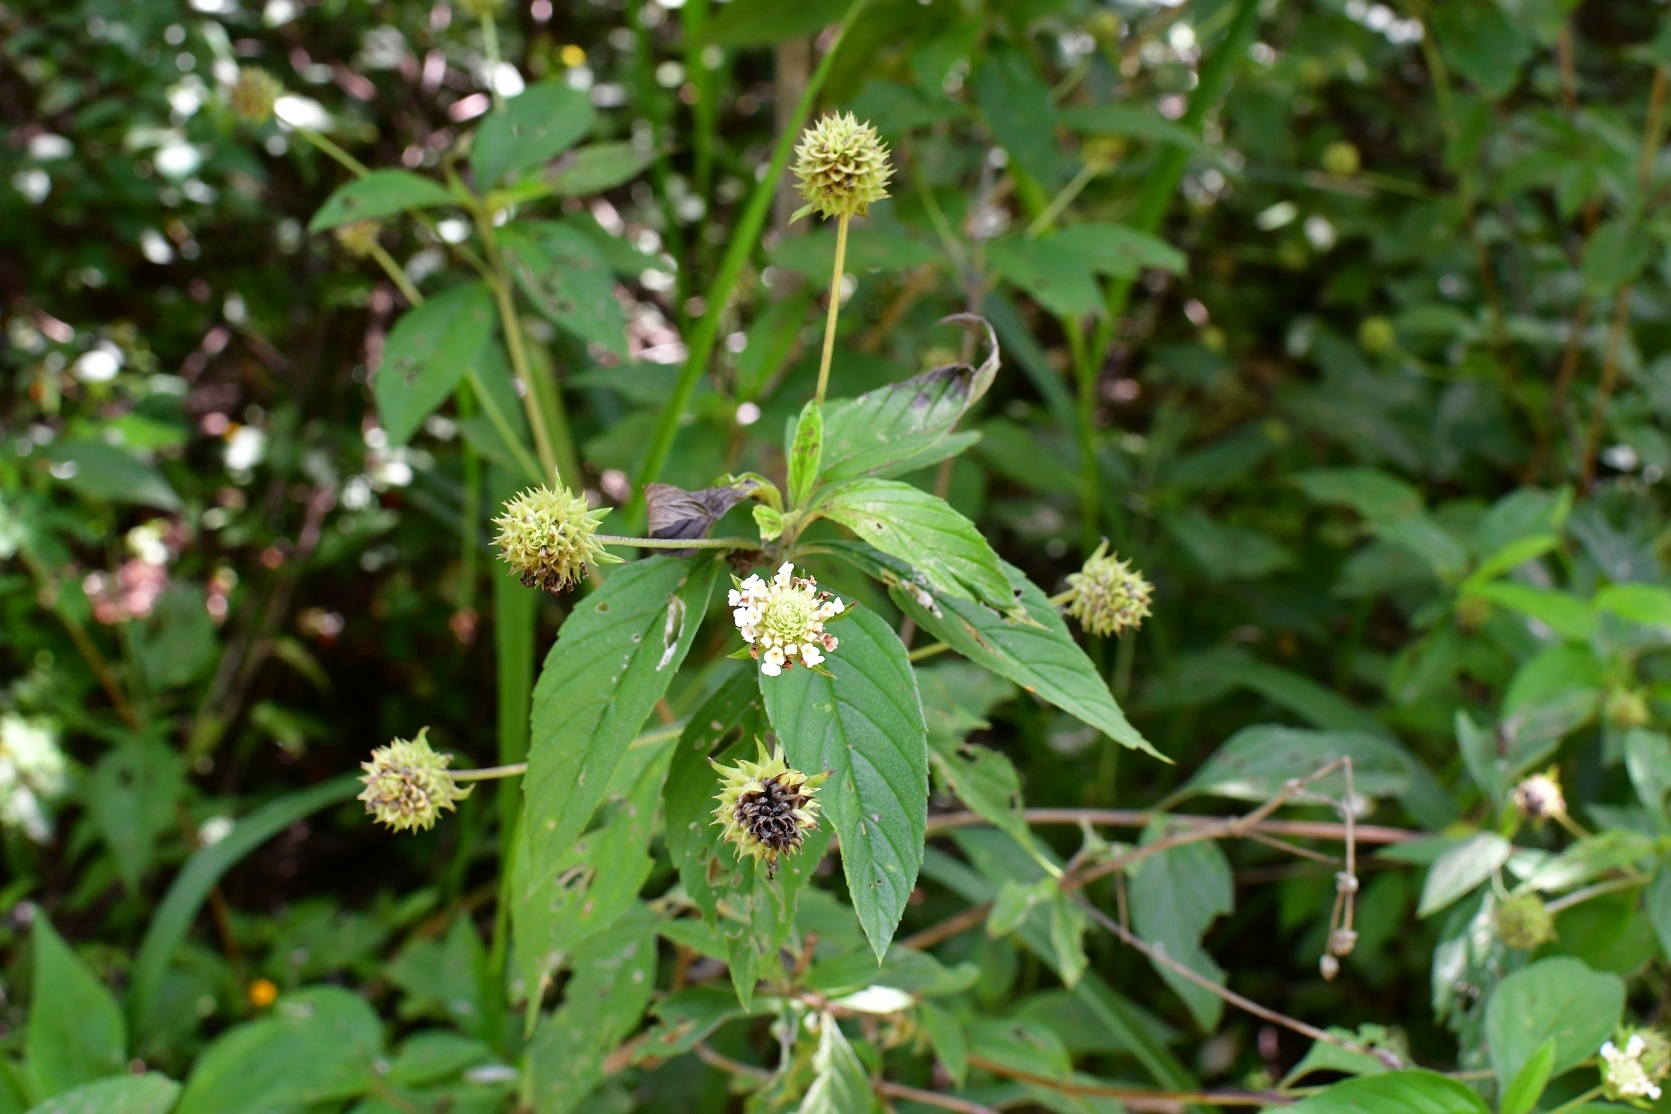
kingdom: Plantae
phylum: Tracheophyta
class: Magnoliopsida
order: Lamiales
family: Verbenaceae
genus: Lantana
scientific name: Lantana achyranthifolia
